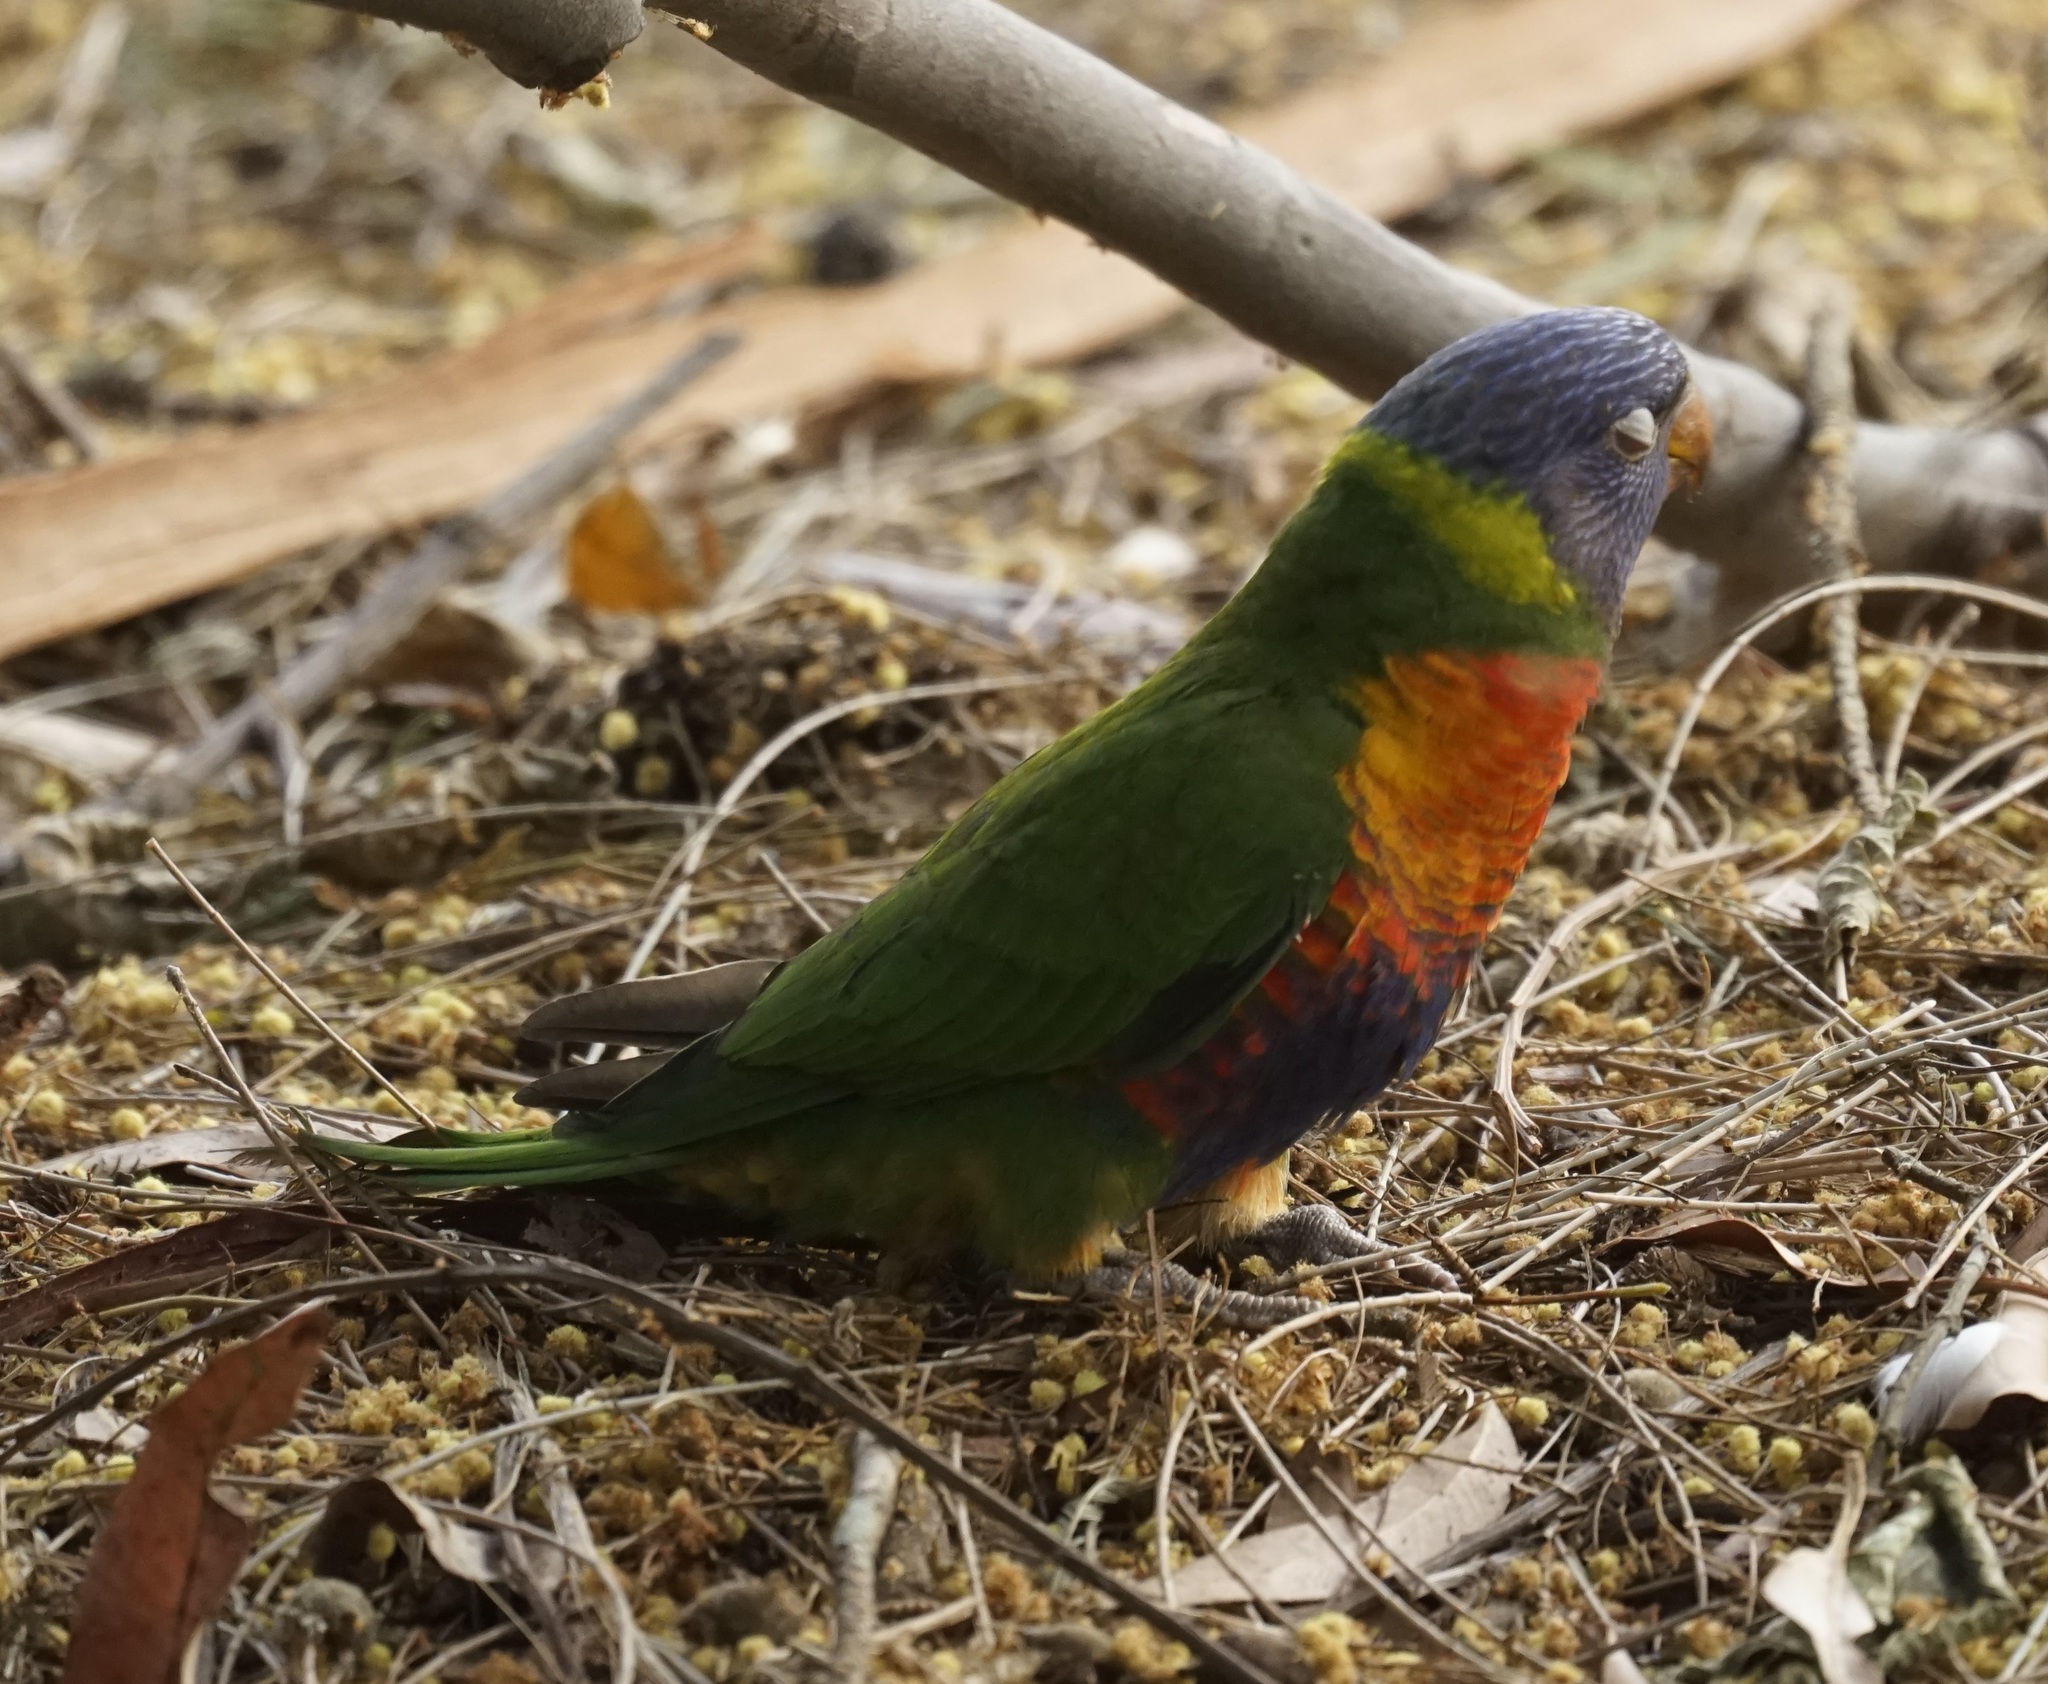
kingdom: Animalia
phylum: Chordata
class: Aves
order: Psittaciformes
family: Psittacidae
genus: Trichoglossus
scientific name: Trichoglossus haematodus
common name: Coconut lorikeet
